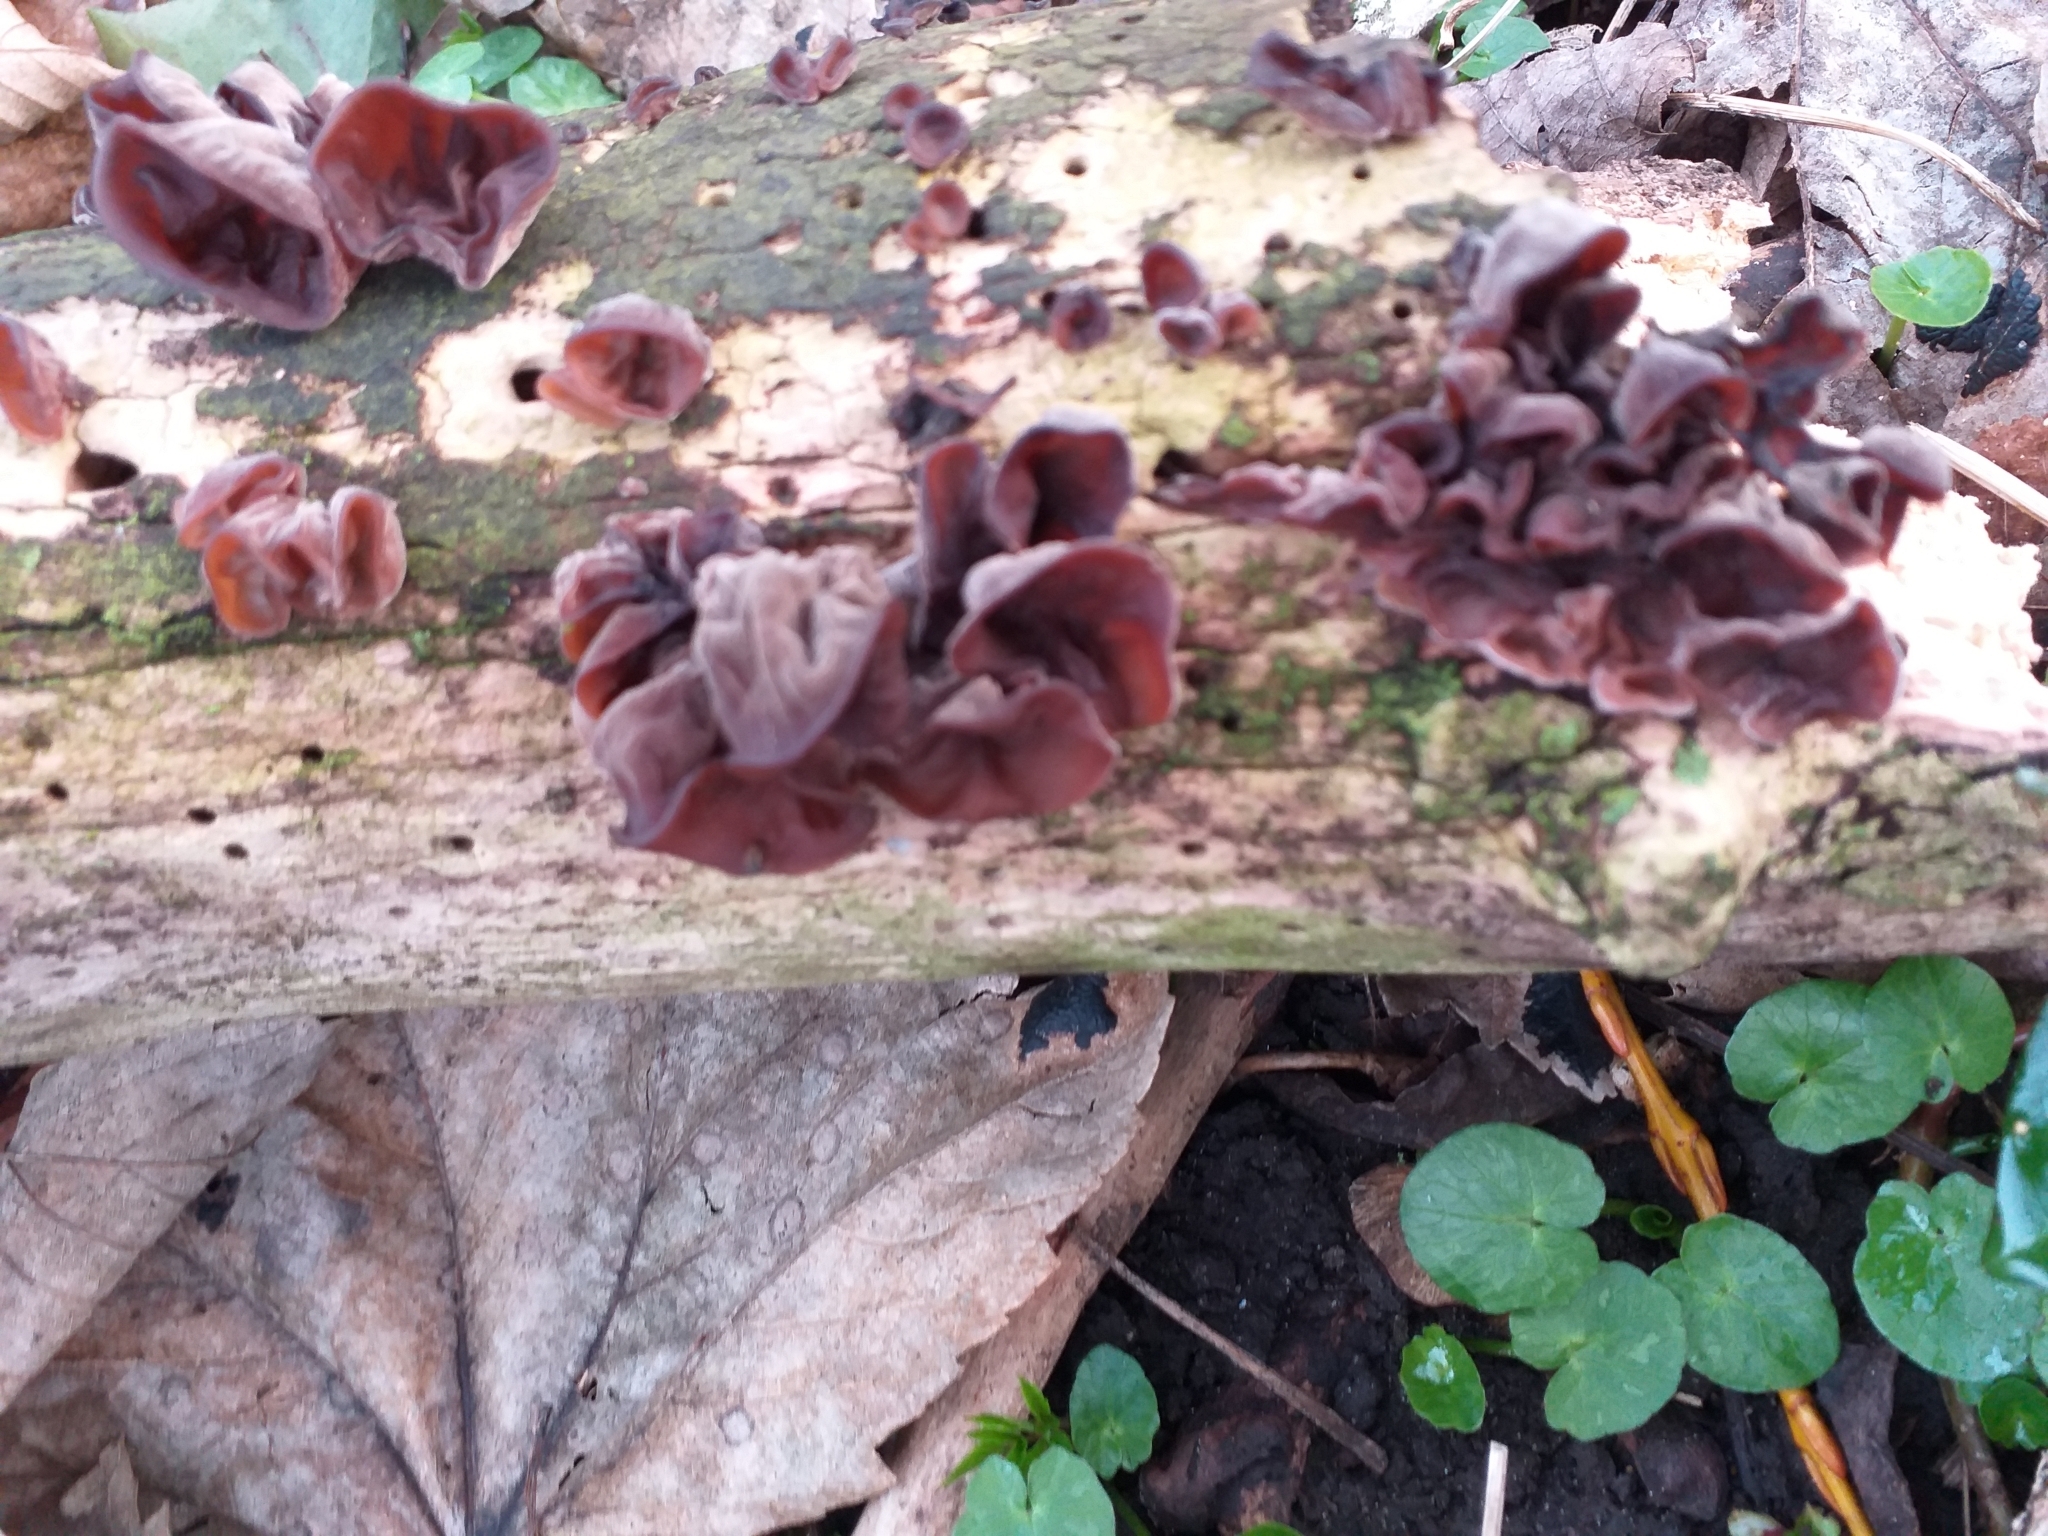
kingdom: Fungi
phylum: Basidiomycota
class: Agaricomycetes
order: Auriculariales
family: Auriculariaceae
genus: Auricularia
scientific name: Auricularia auricula-judae
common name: Jelly ear
